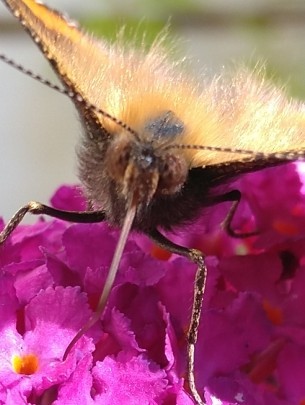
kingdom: Animalia
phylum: Arthropoda
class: Insecta
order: Lepidoptera
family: Nymphalidae
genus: Aglais
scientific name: Aglais urticae
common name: Small tortoiseshell
